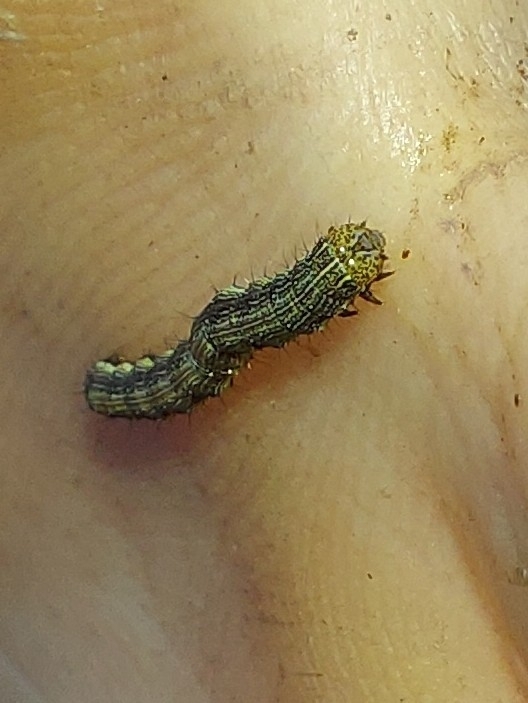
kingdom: Animalia
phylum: Arthropoda
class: Insecta
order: Lepidoptera
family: Noctuidae
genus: Helicoverpa
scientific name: Helicoverpa armigera
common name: Cotton bollworm
